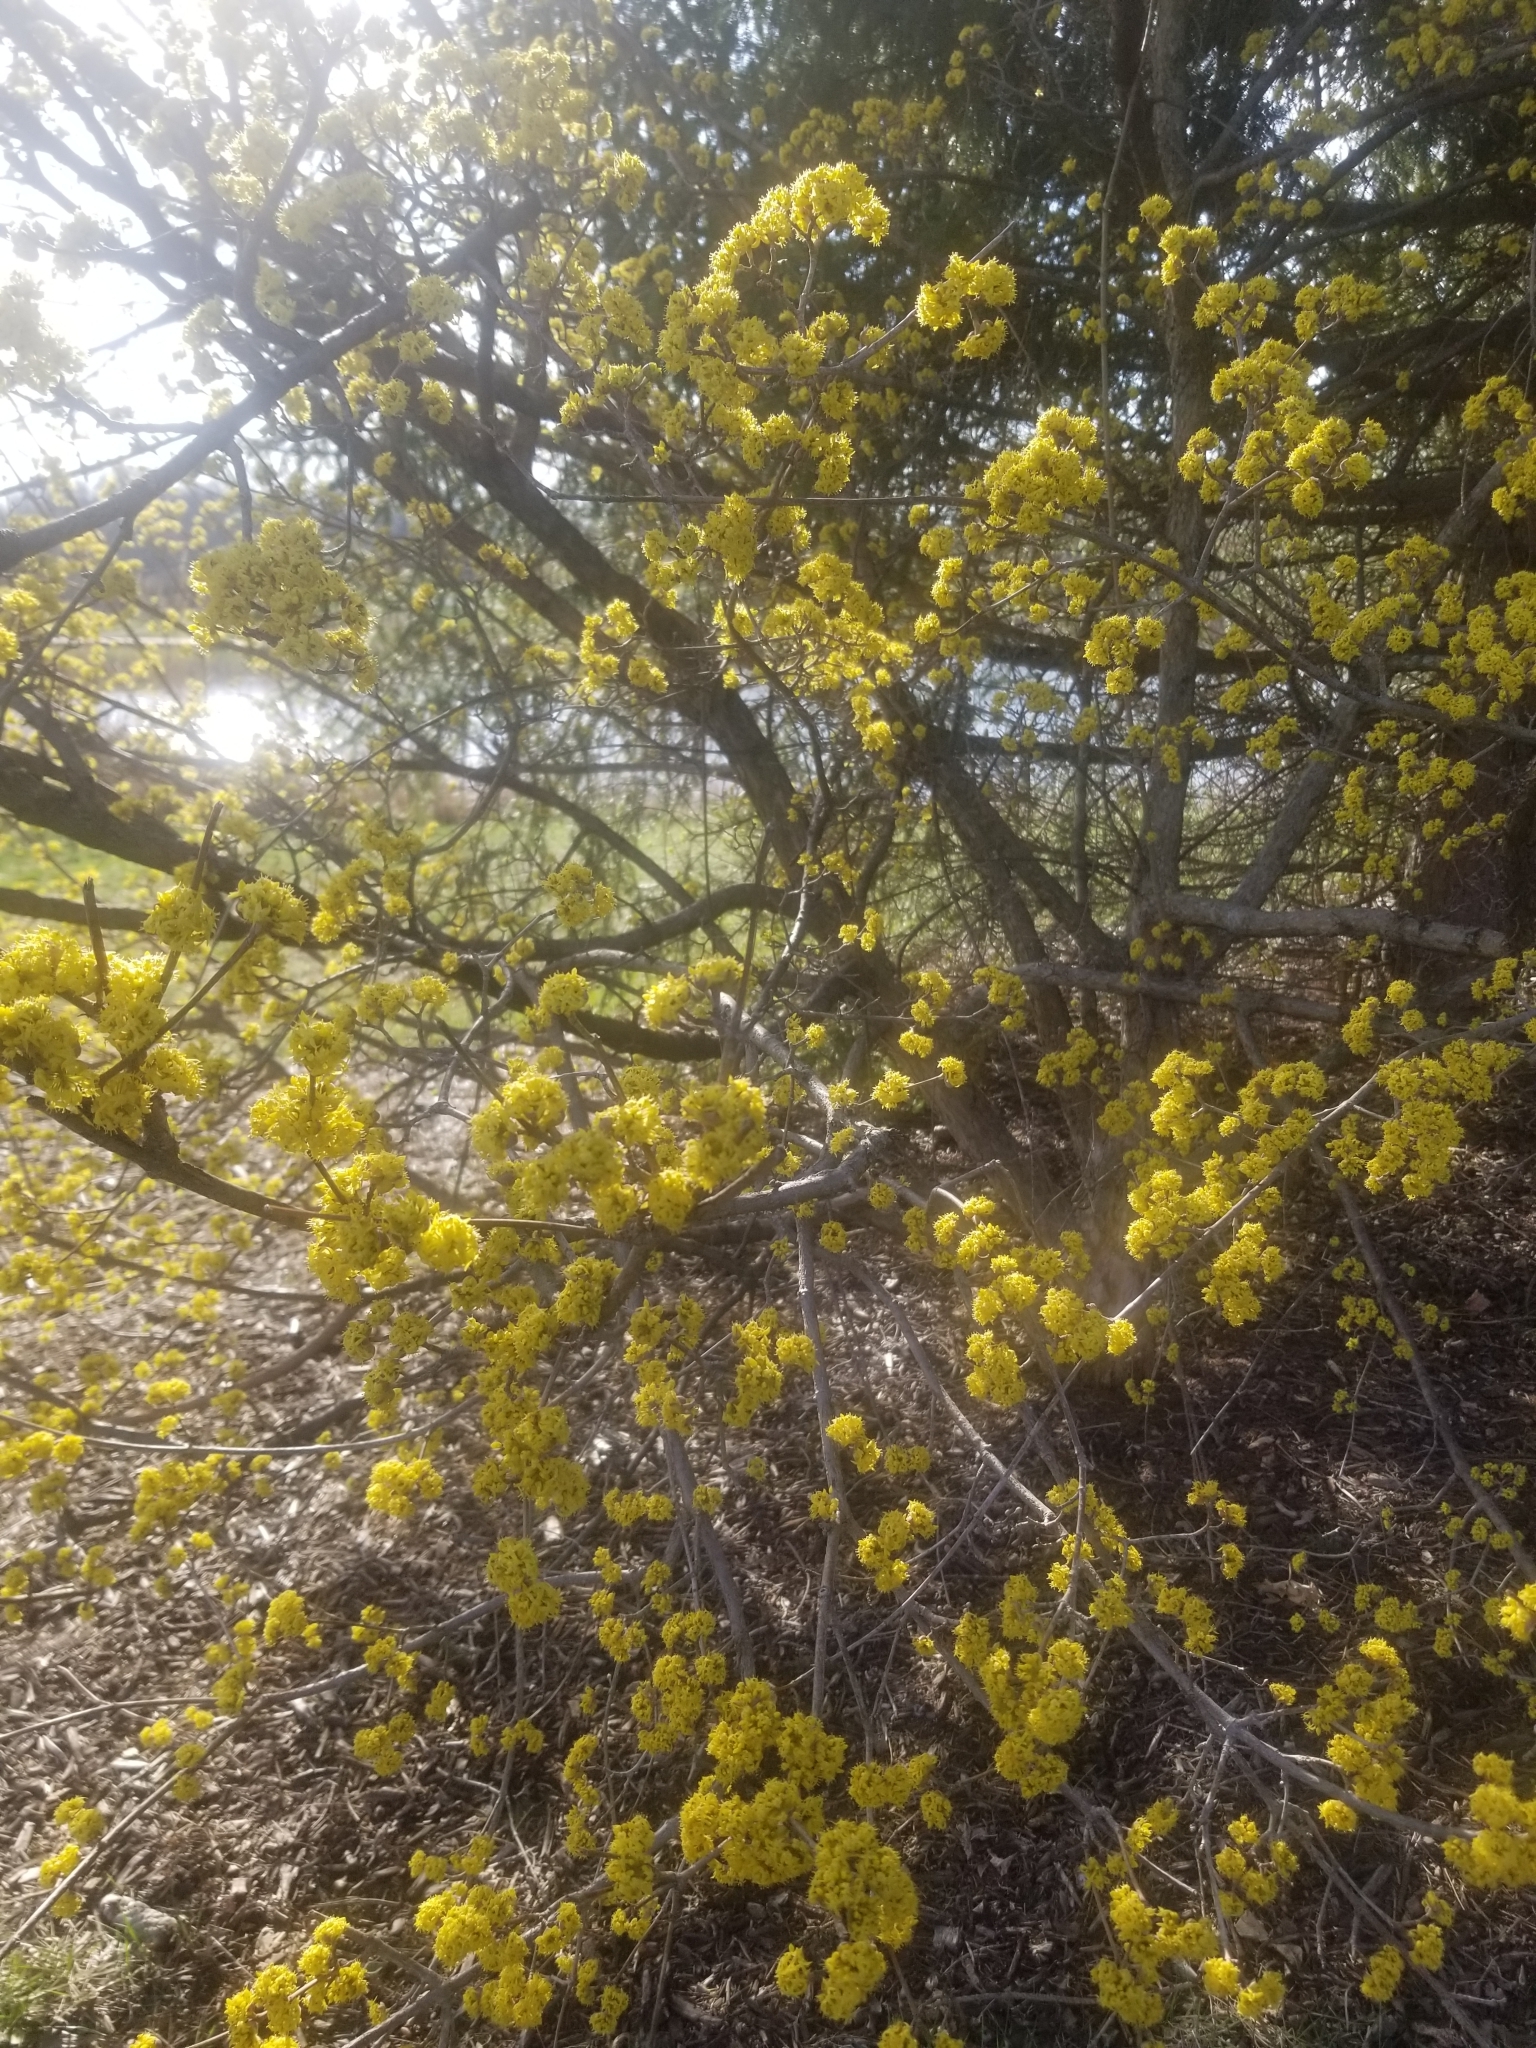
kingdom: Plantae
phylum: Tracheophyta
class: Magnoliopsida
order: Cornales
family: Cornaceae
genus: Cornus
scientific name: Cornus mas
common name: Cornelian-cherry
